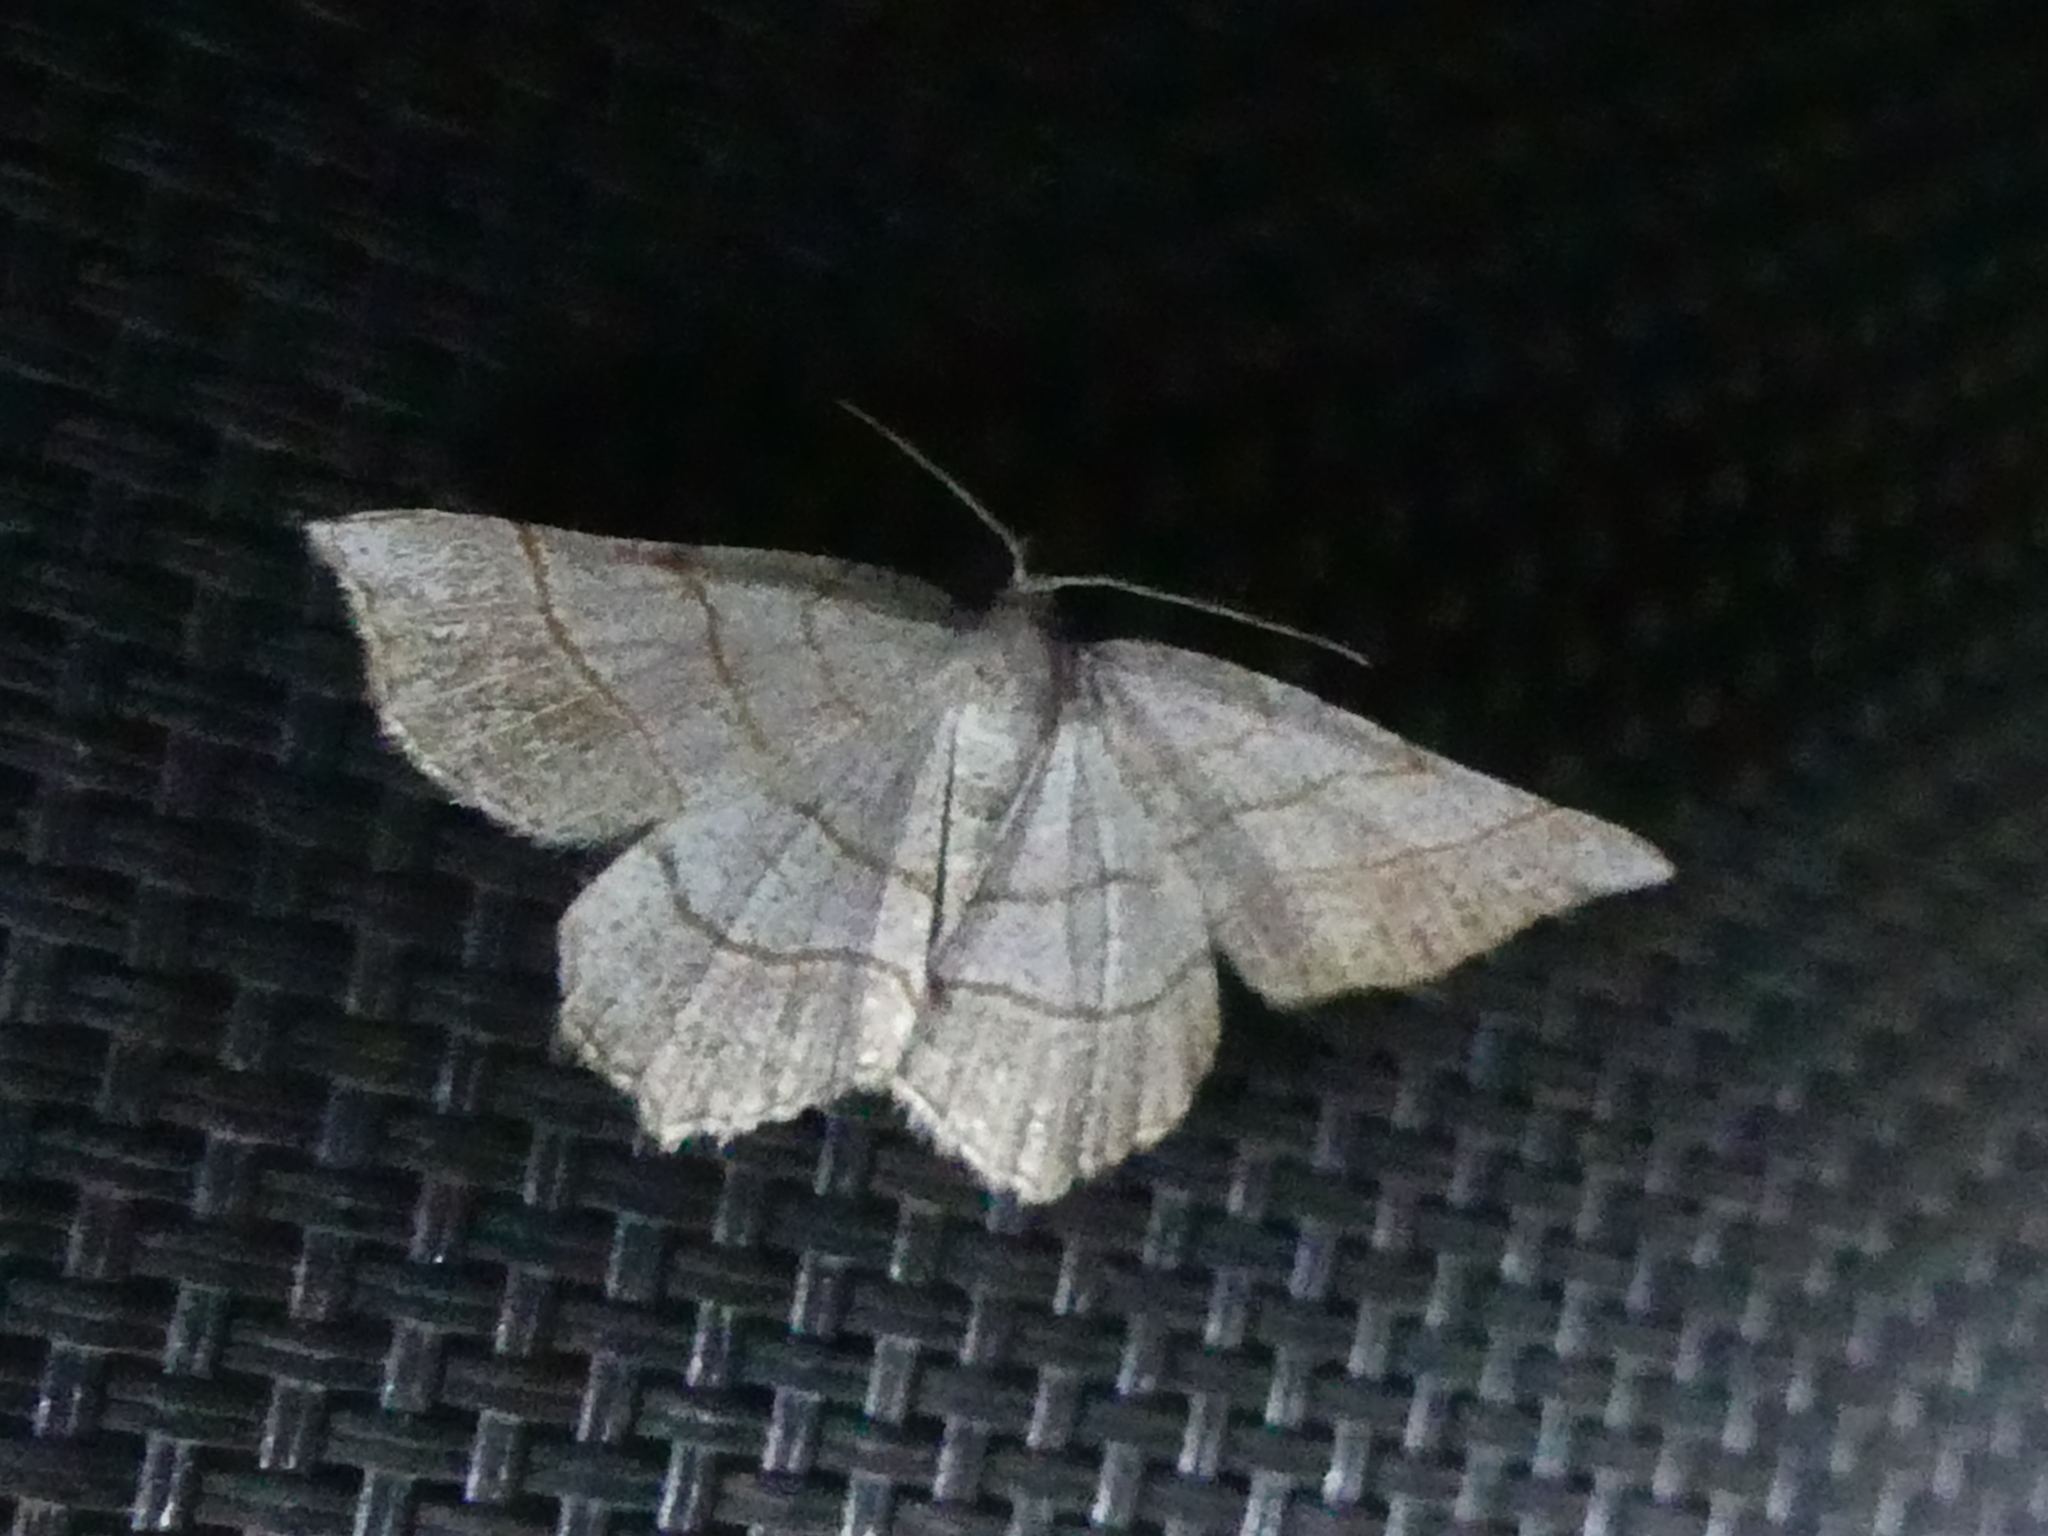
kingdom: Animalia
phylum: Arthropoda
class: Insecta
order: Lepidoptera
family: Geometridae
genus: Eumacaria
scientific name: Eumacaria madopata
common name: Brown-bordered geometer
